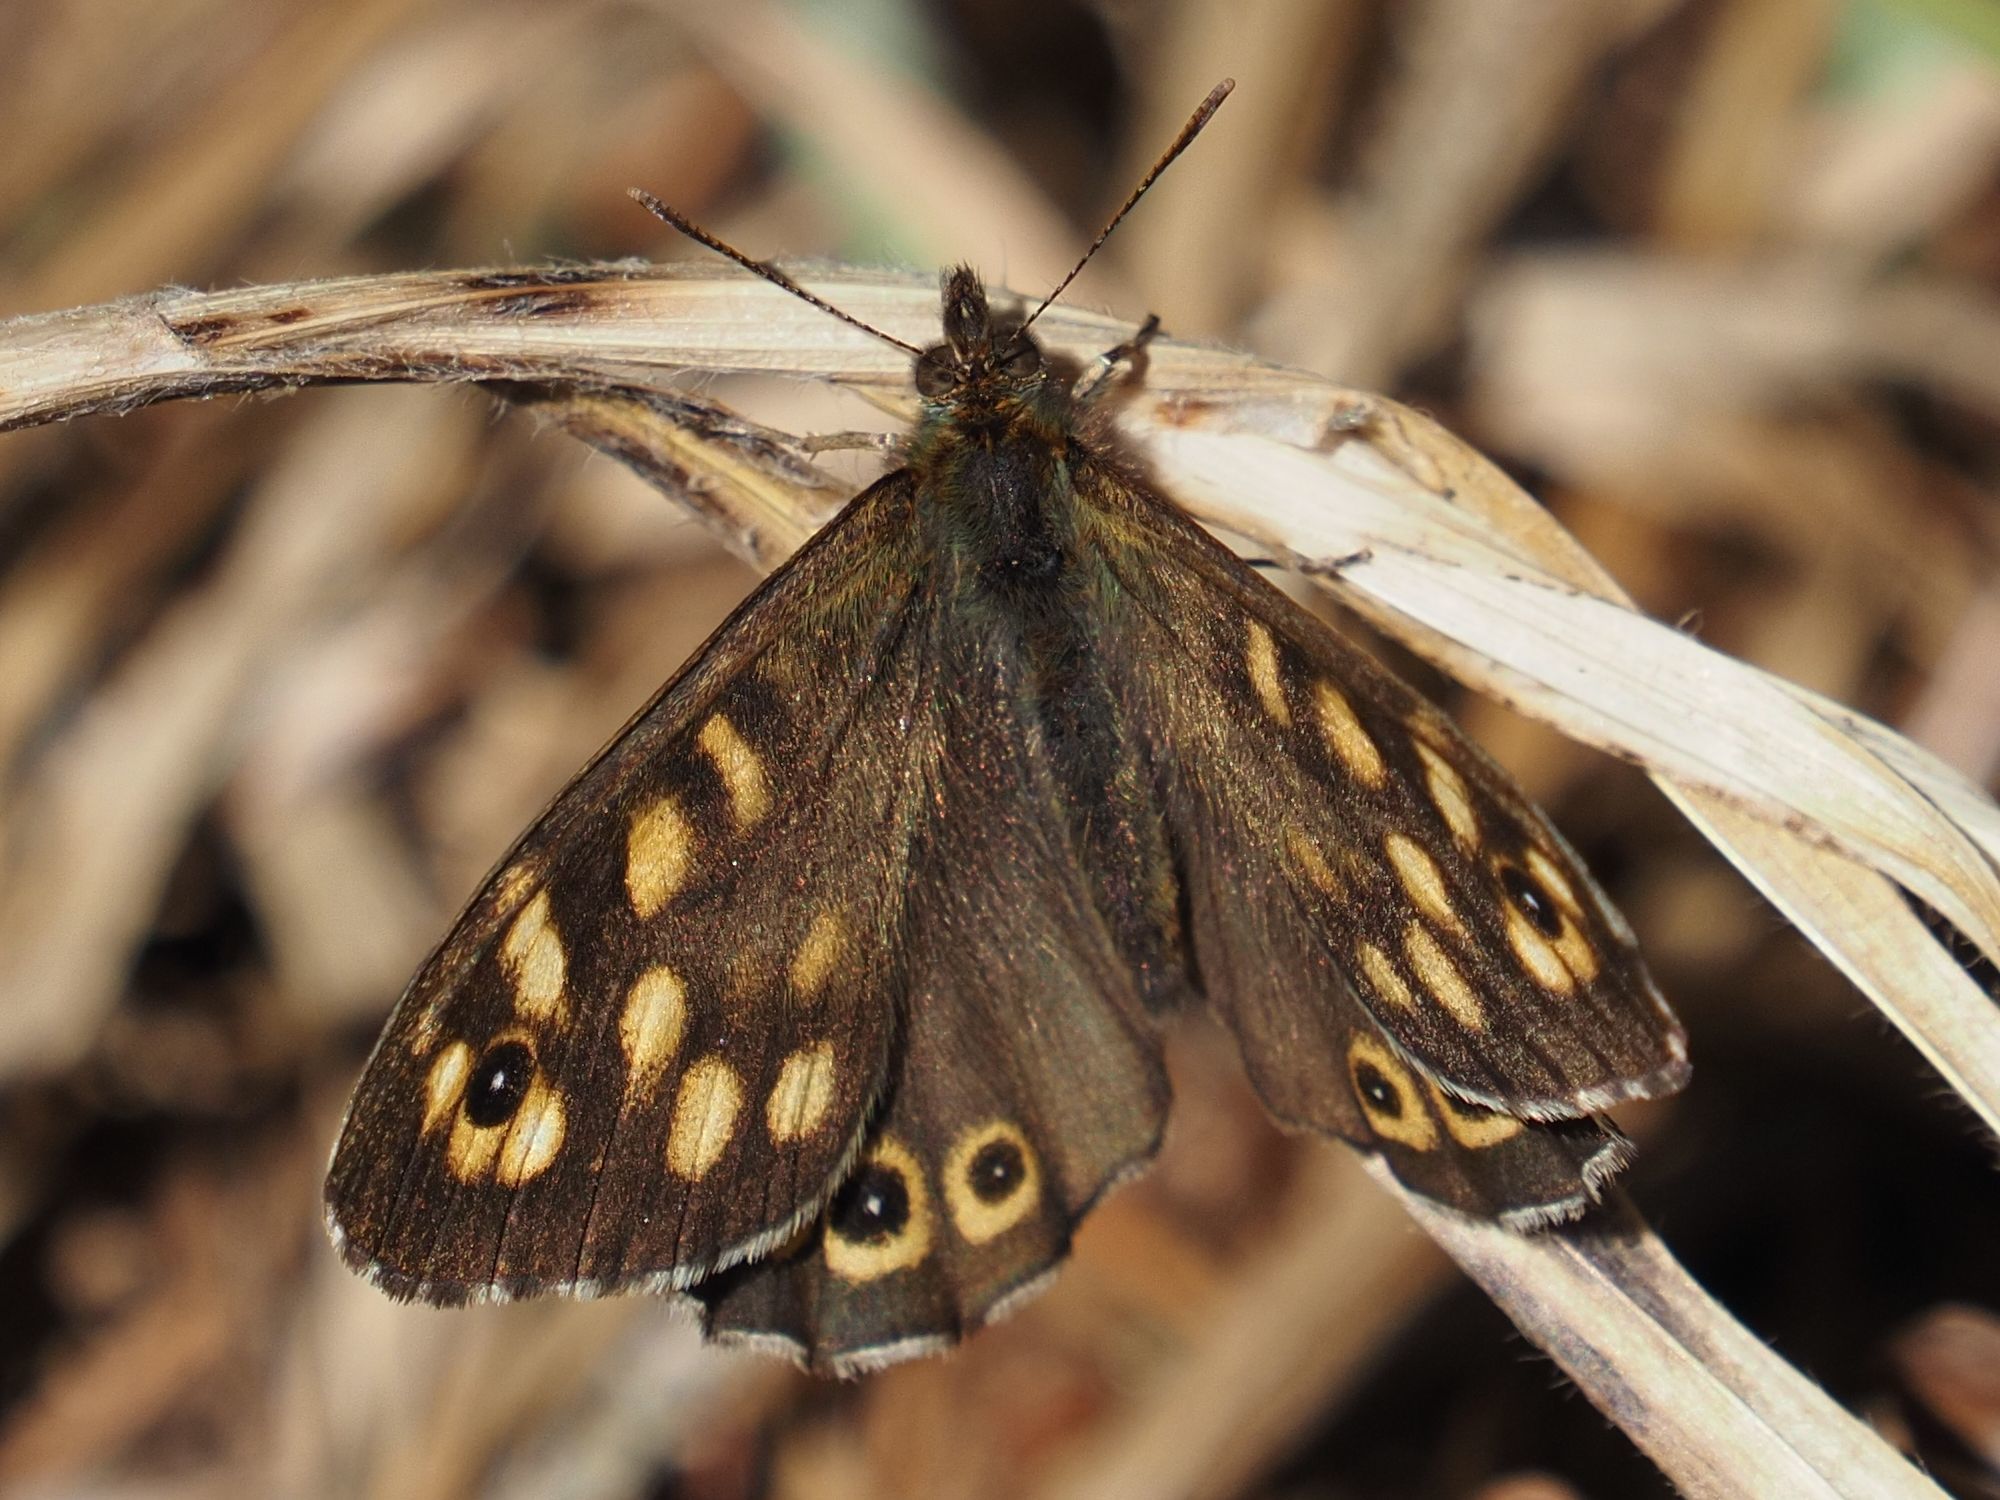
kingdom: Animalia
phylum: Arthropoda
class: Insecta
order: Lepidoptera
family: Nymphalidae
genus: Pararge
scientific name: Pararge aegeria
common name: Speckled wood
